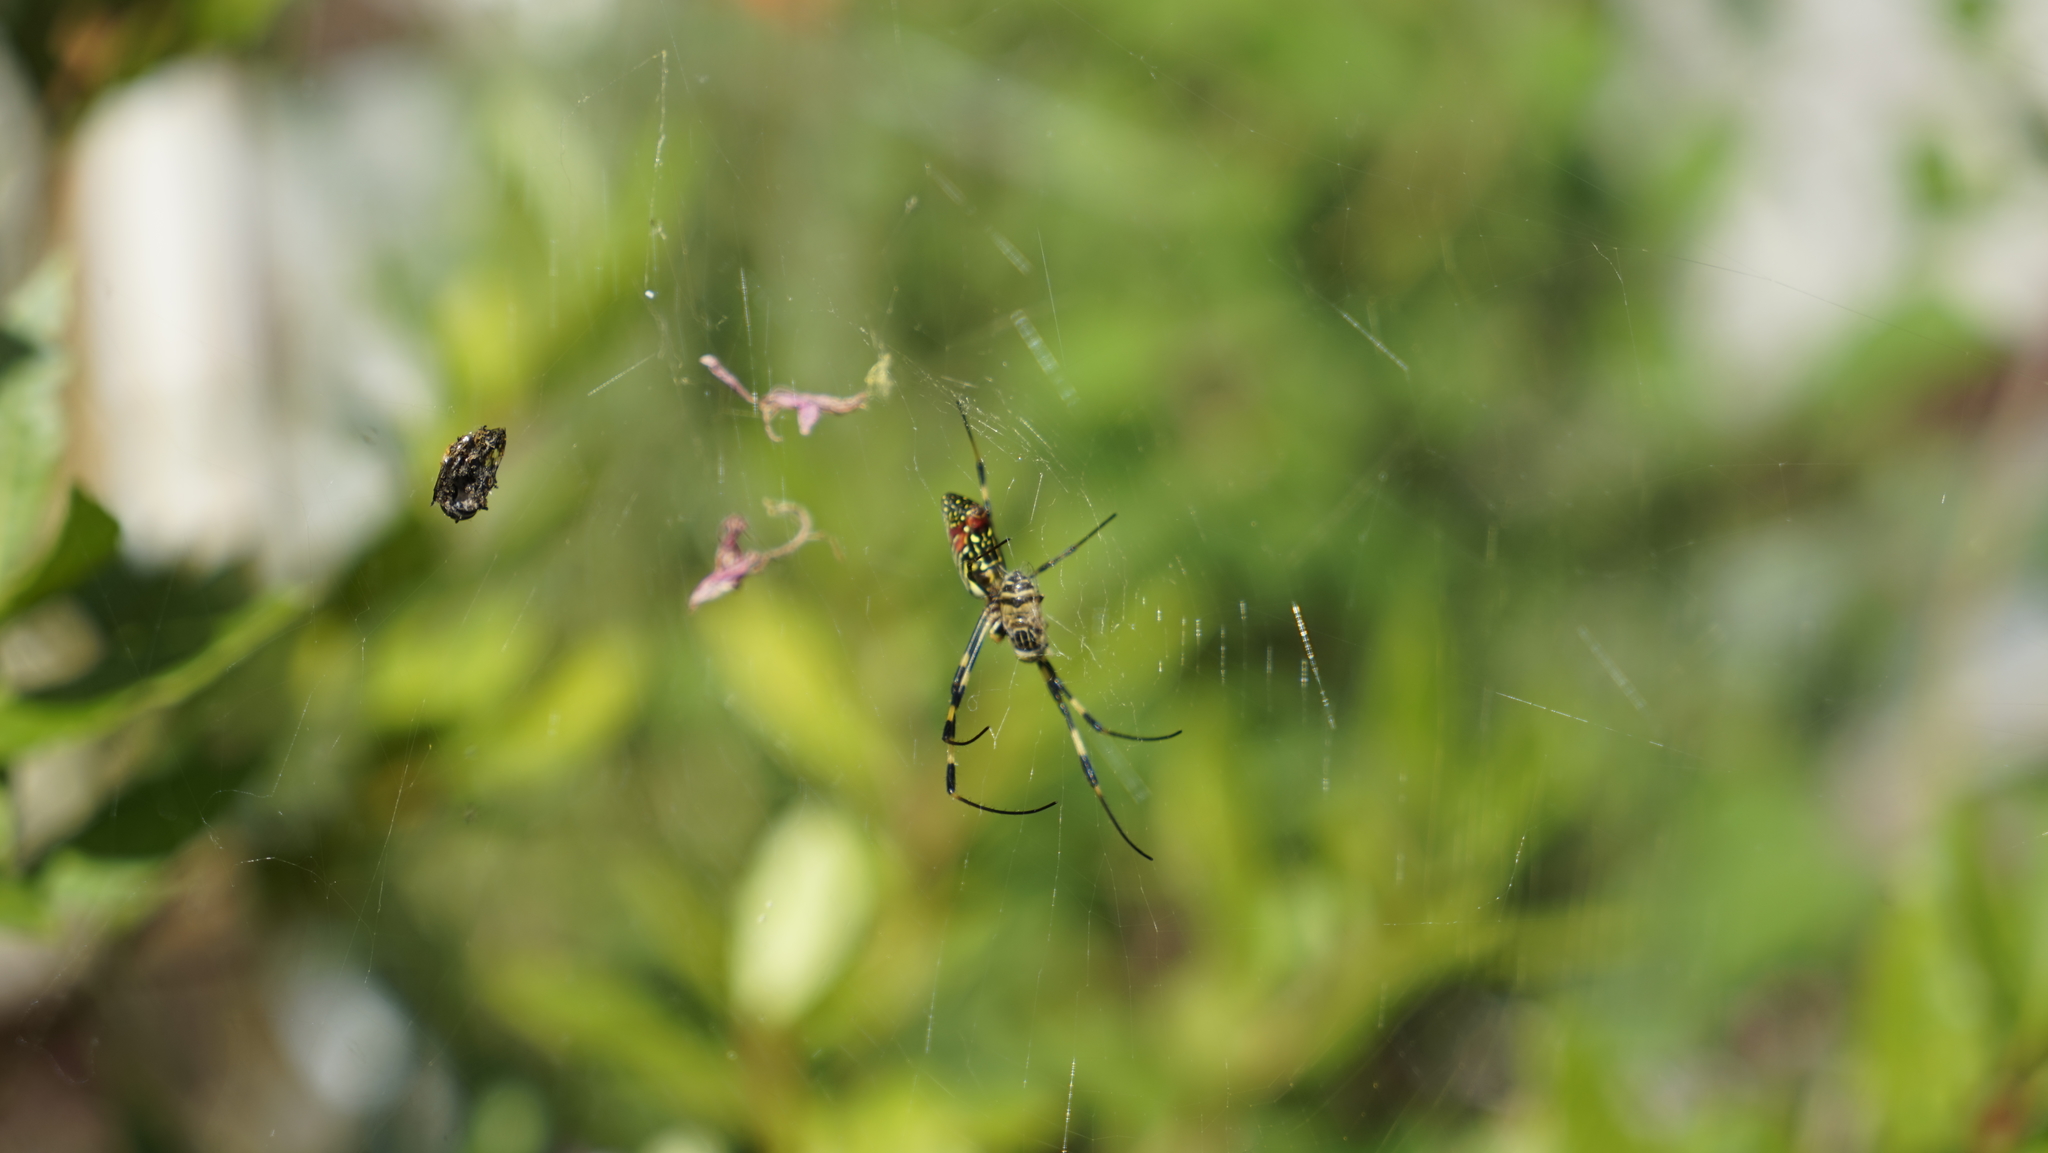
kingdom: Animalia
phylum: Arthropoda
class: Arachnida
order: Araneae
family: Araneidae
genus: Trichonephila
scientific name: Trichonephila clavata
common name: Jorō spider
